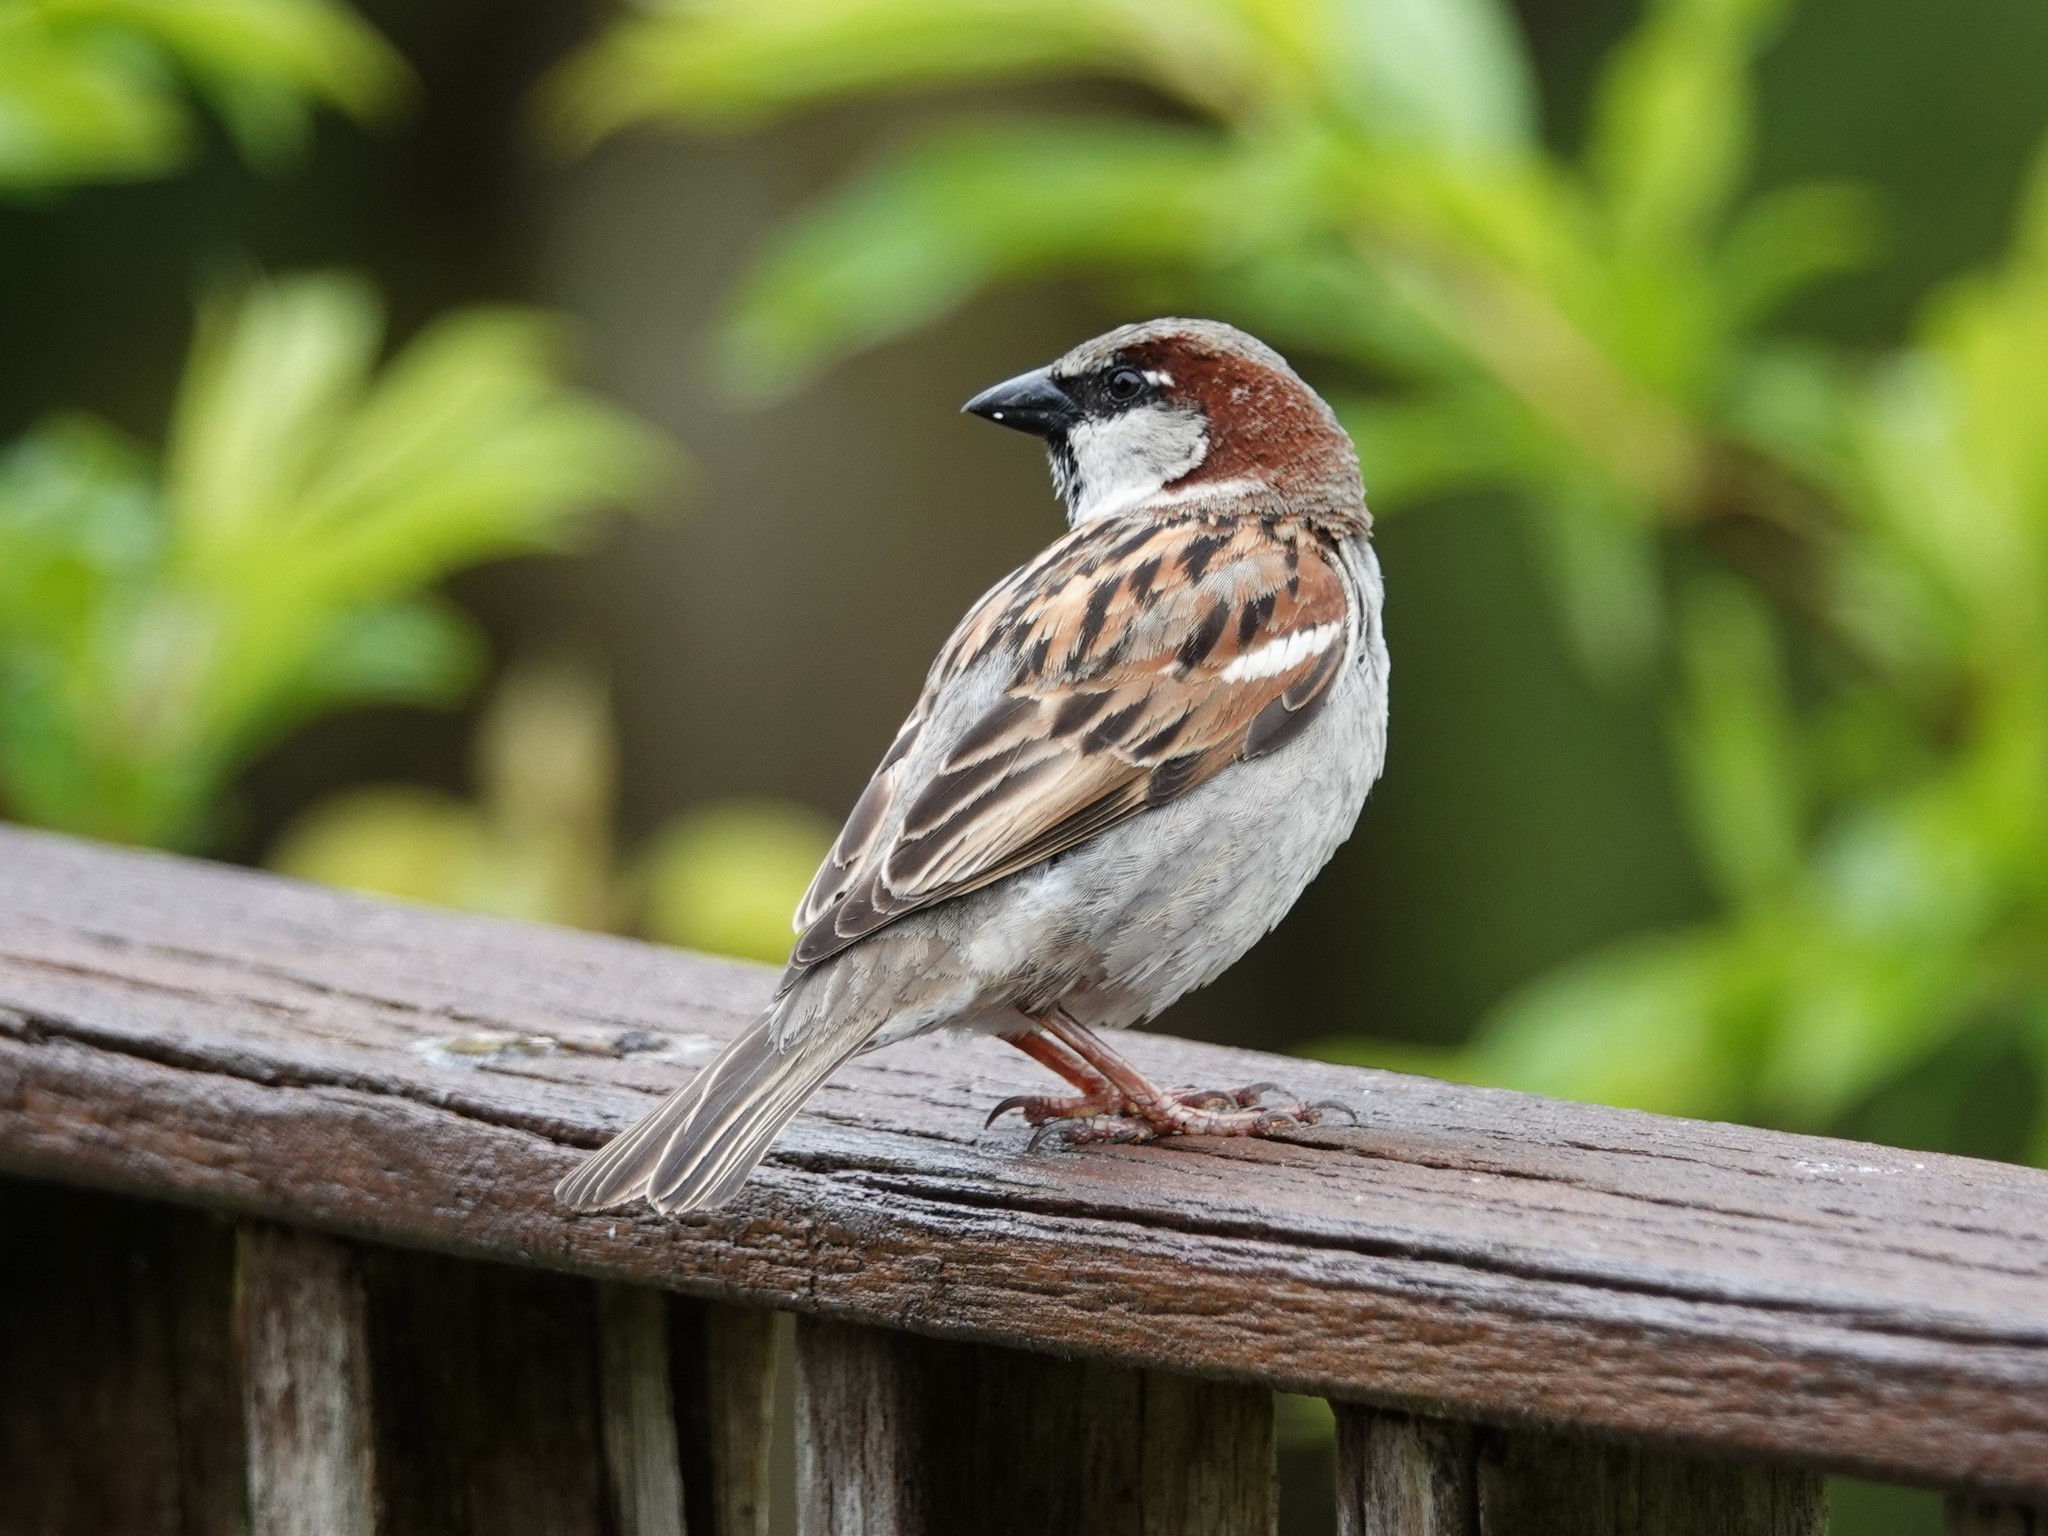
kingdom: Animalia
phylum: Chordata
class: Aves
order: Passeriformes
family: Passeridae
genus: Passer
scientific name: Passer domesticus
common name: House sparrow
